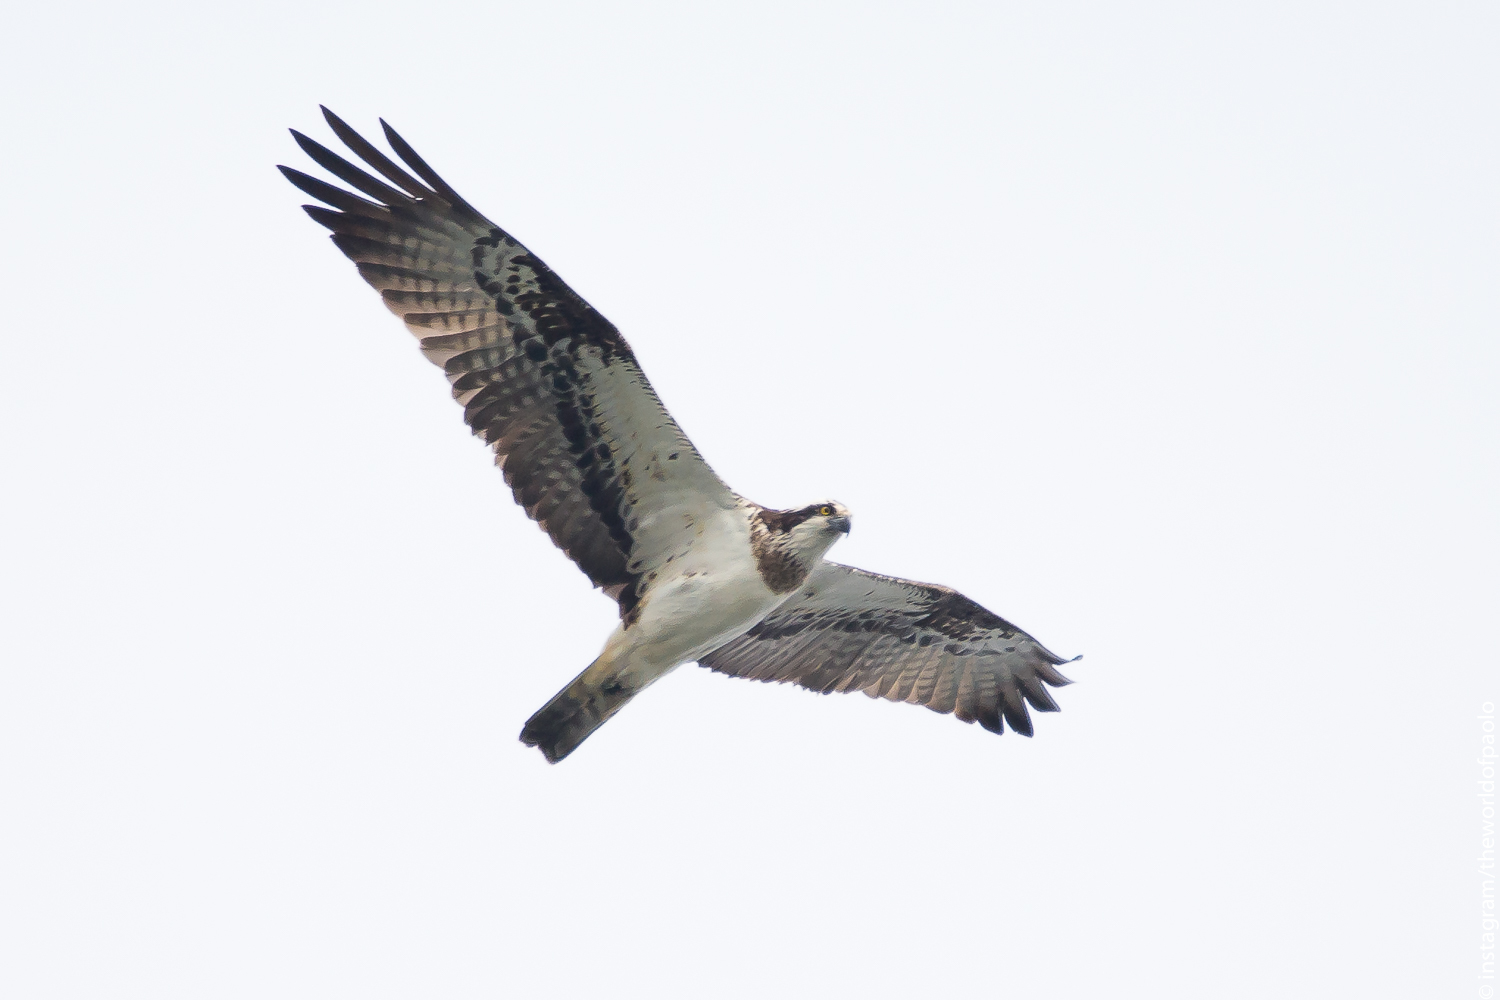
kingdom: Animalia
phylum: Chordata
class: Aves
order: Accipitriformes
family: Pandionidae
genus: Pandion
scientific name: Pandion haliaetus
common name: Osprey
